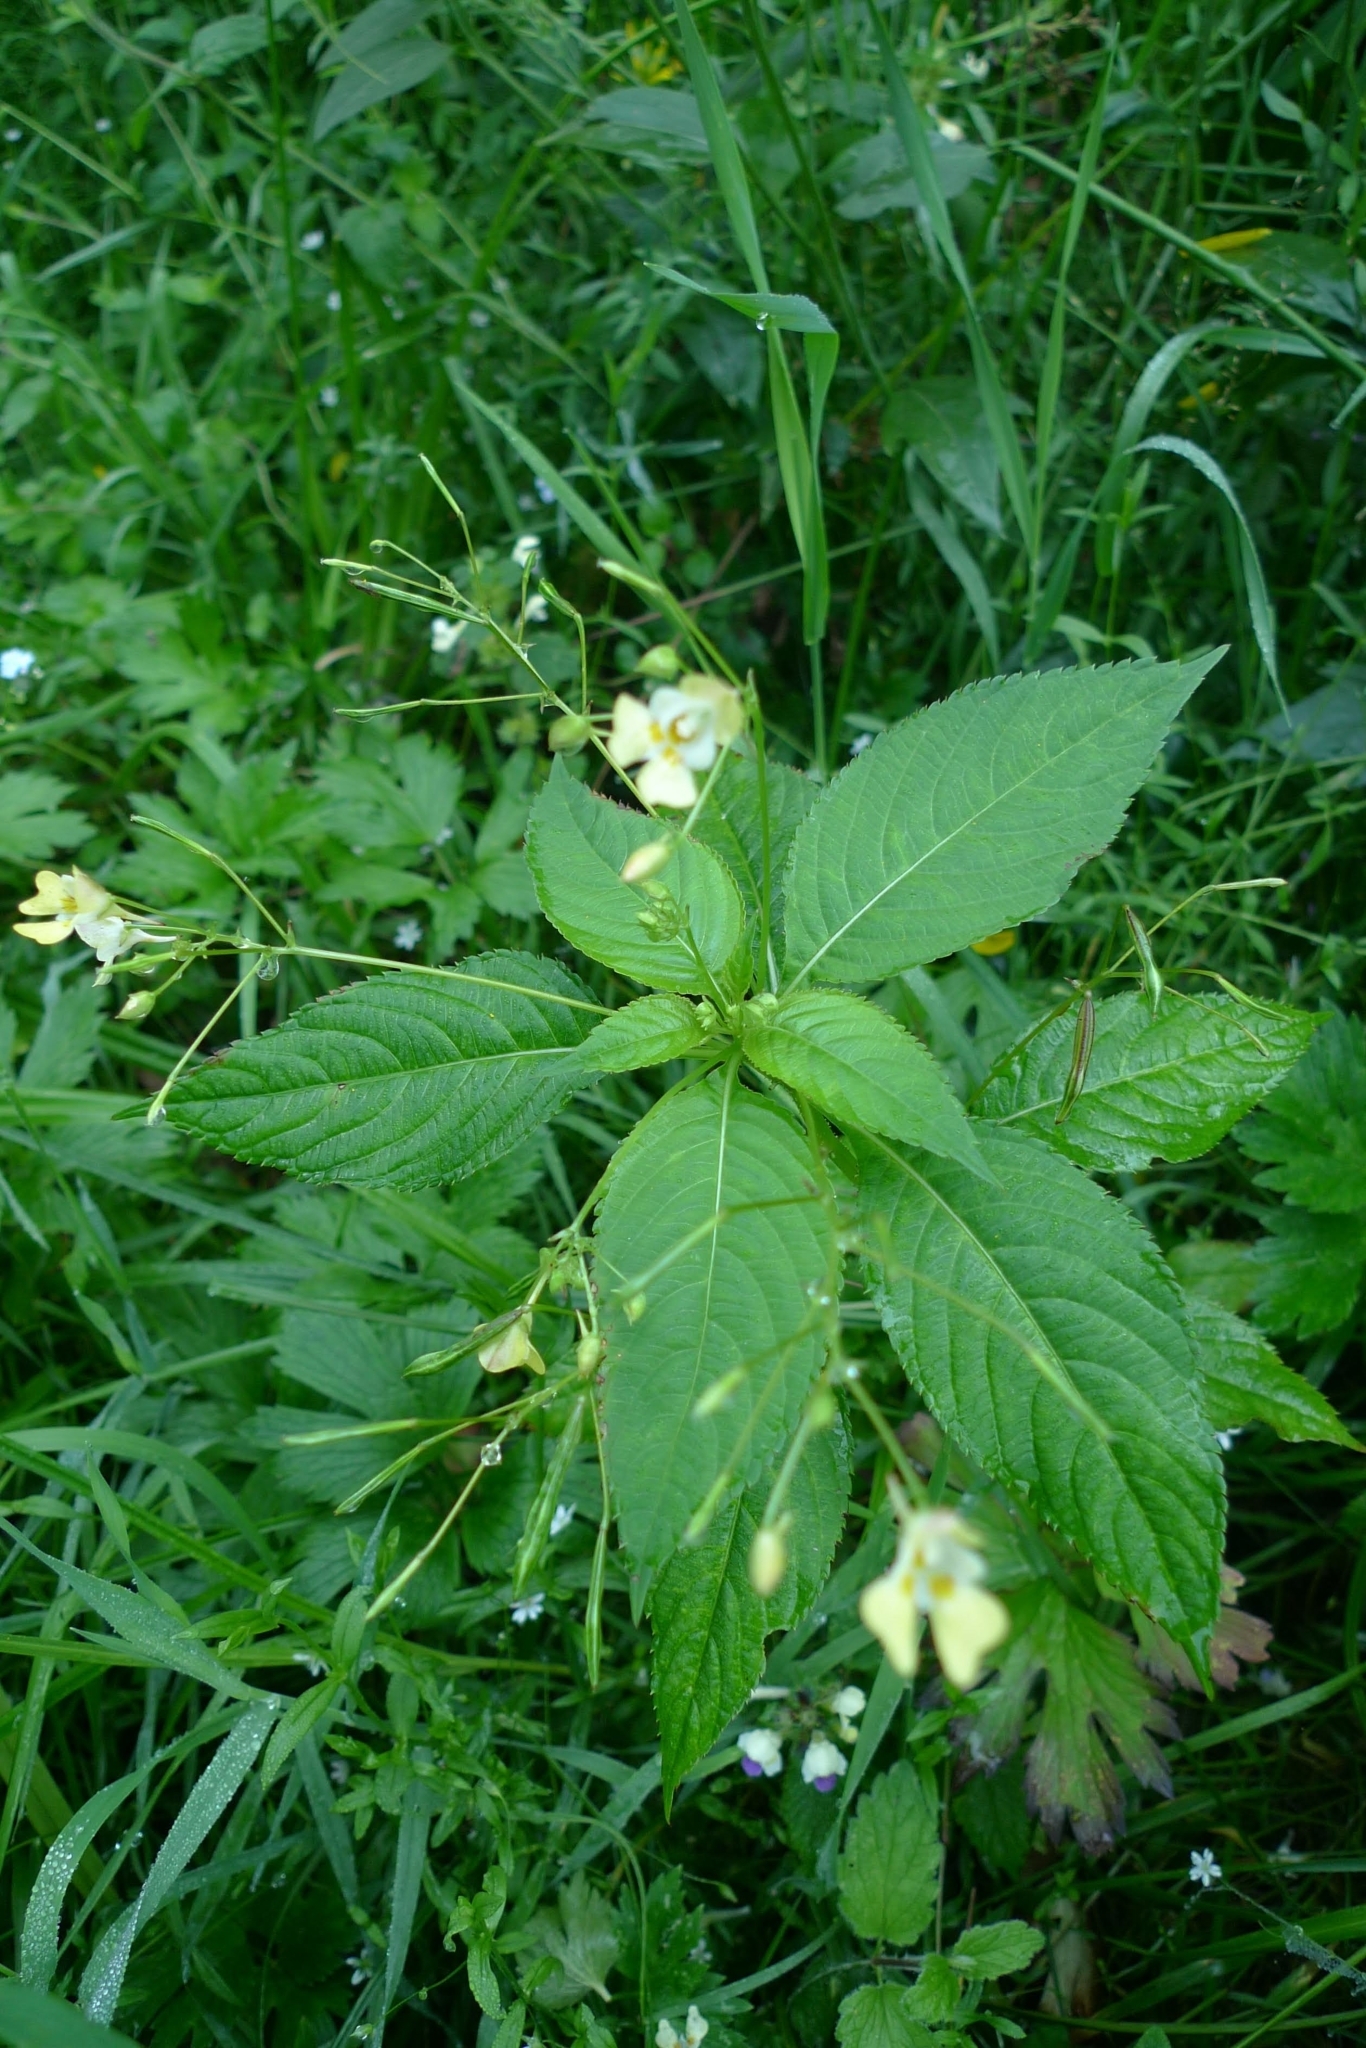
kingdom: Plantae
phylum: Tracheophyta
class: Magnoliopsida
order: Ericales
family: Balsaminaceae
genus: Impatiens
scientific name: Impatiens parviflora
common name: Small balsam
